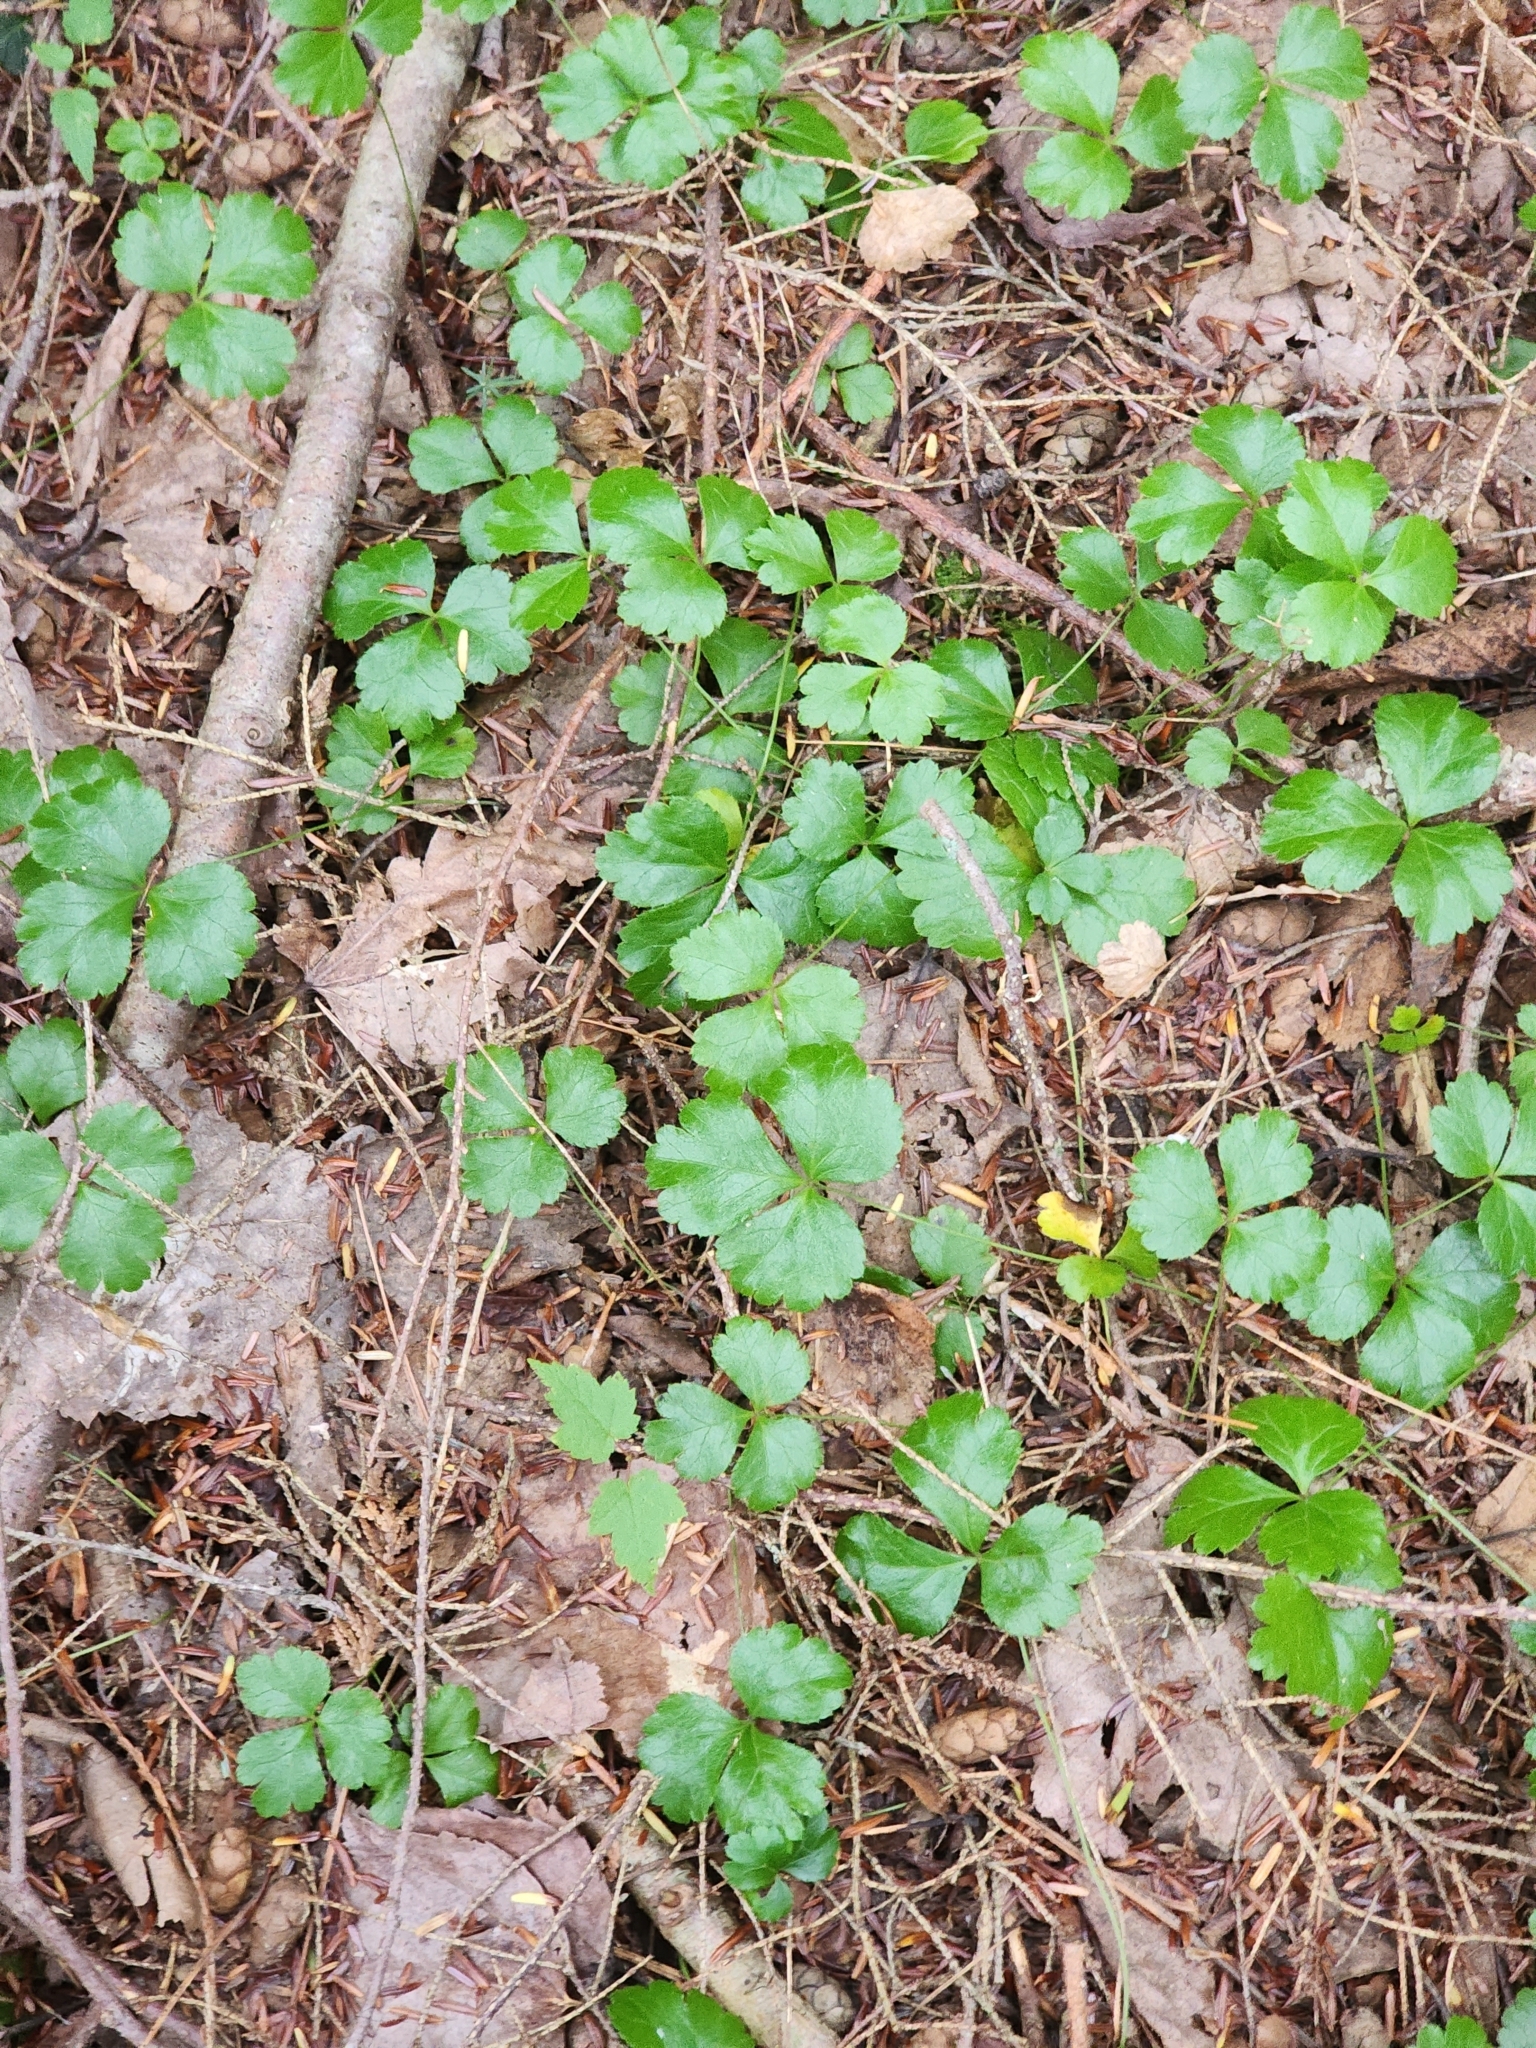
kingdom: Plantae
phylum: Tracheophyta
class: Magnoliopsida
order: Ranunculales
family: Ranunculaceae
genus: Coptis
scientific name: Coptis trifolia
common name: Canker-root
